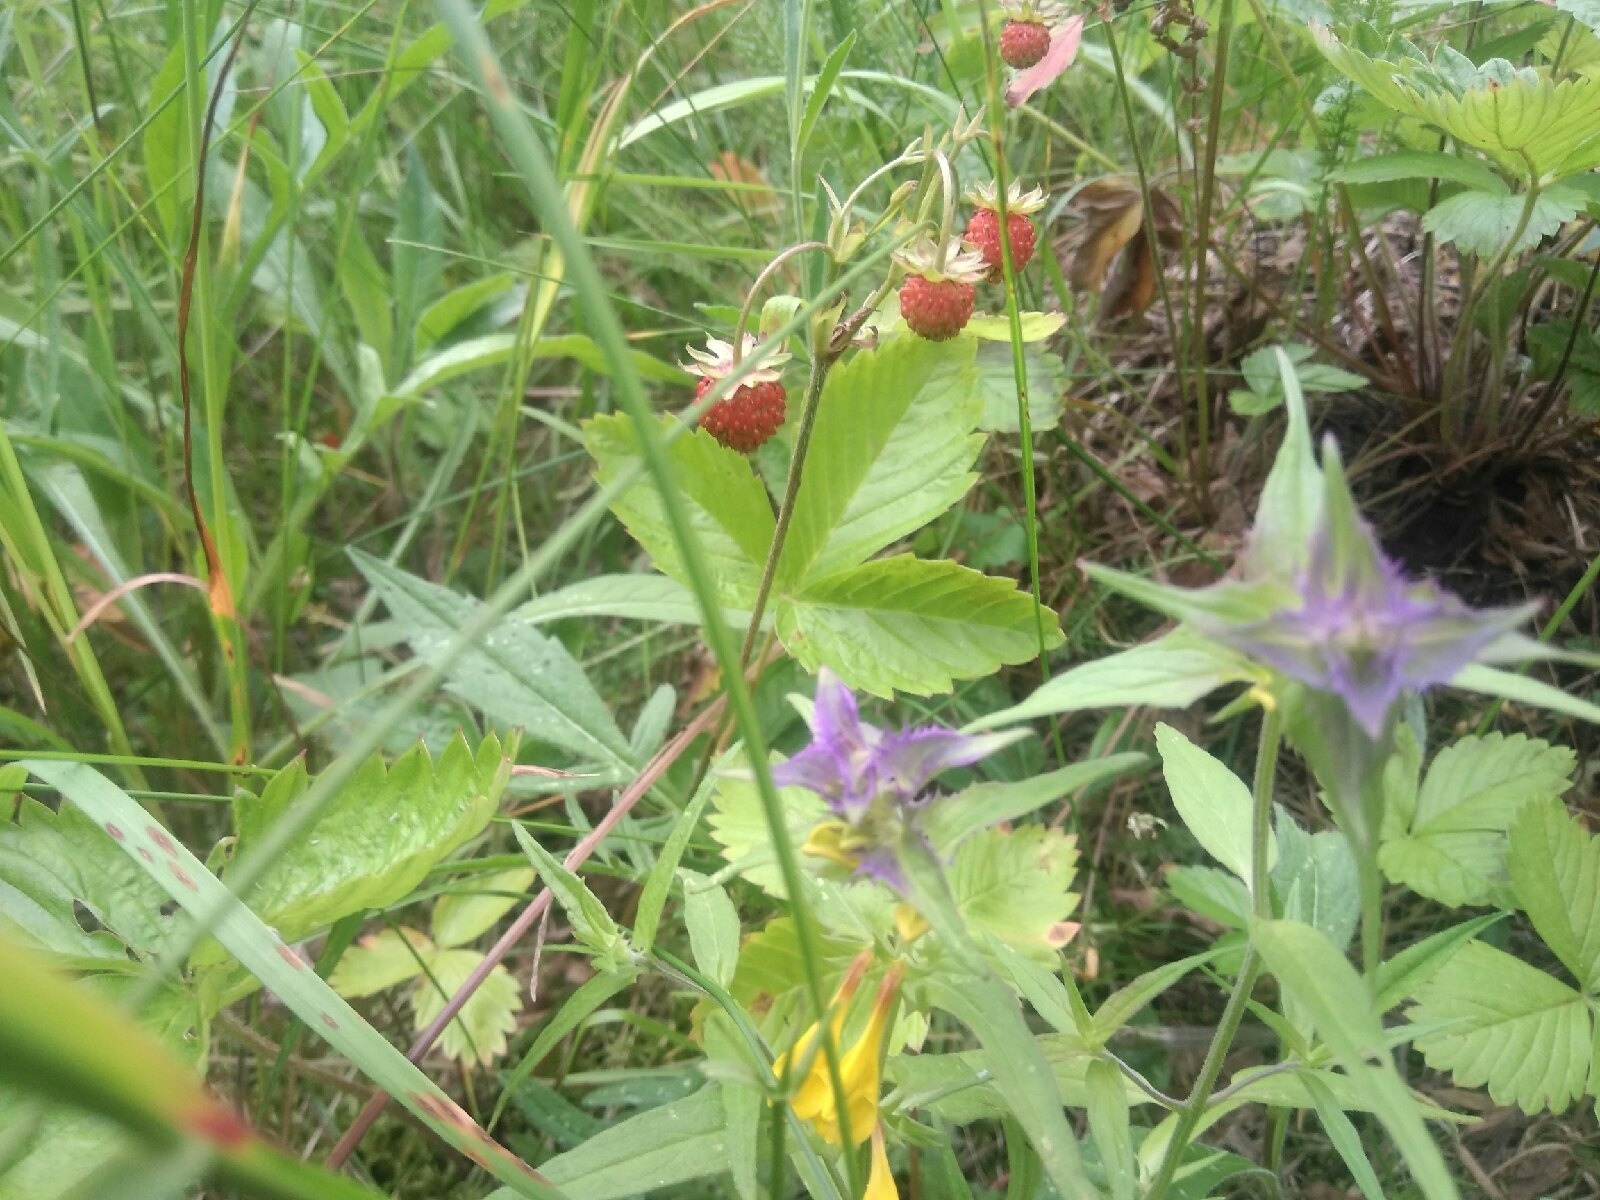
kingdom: Plantae
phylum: Tracheophyta
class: Magnoliopsida
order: Rosales
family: Rosaceae
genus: Fragaria
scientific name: Fragaria vesca
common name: Wild strawberry
